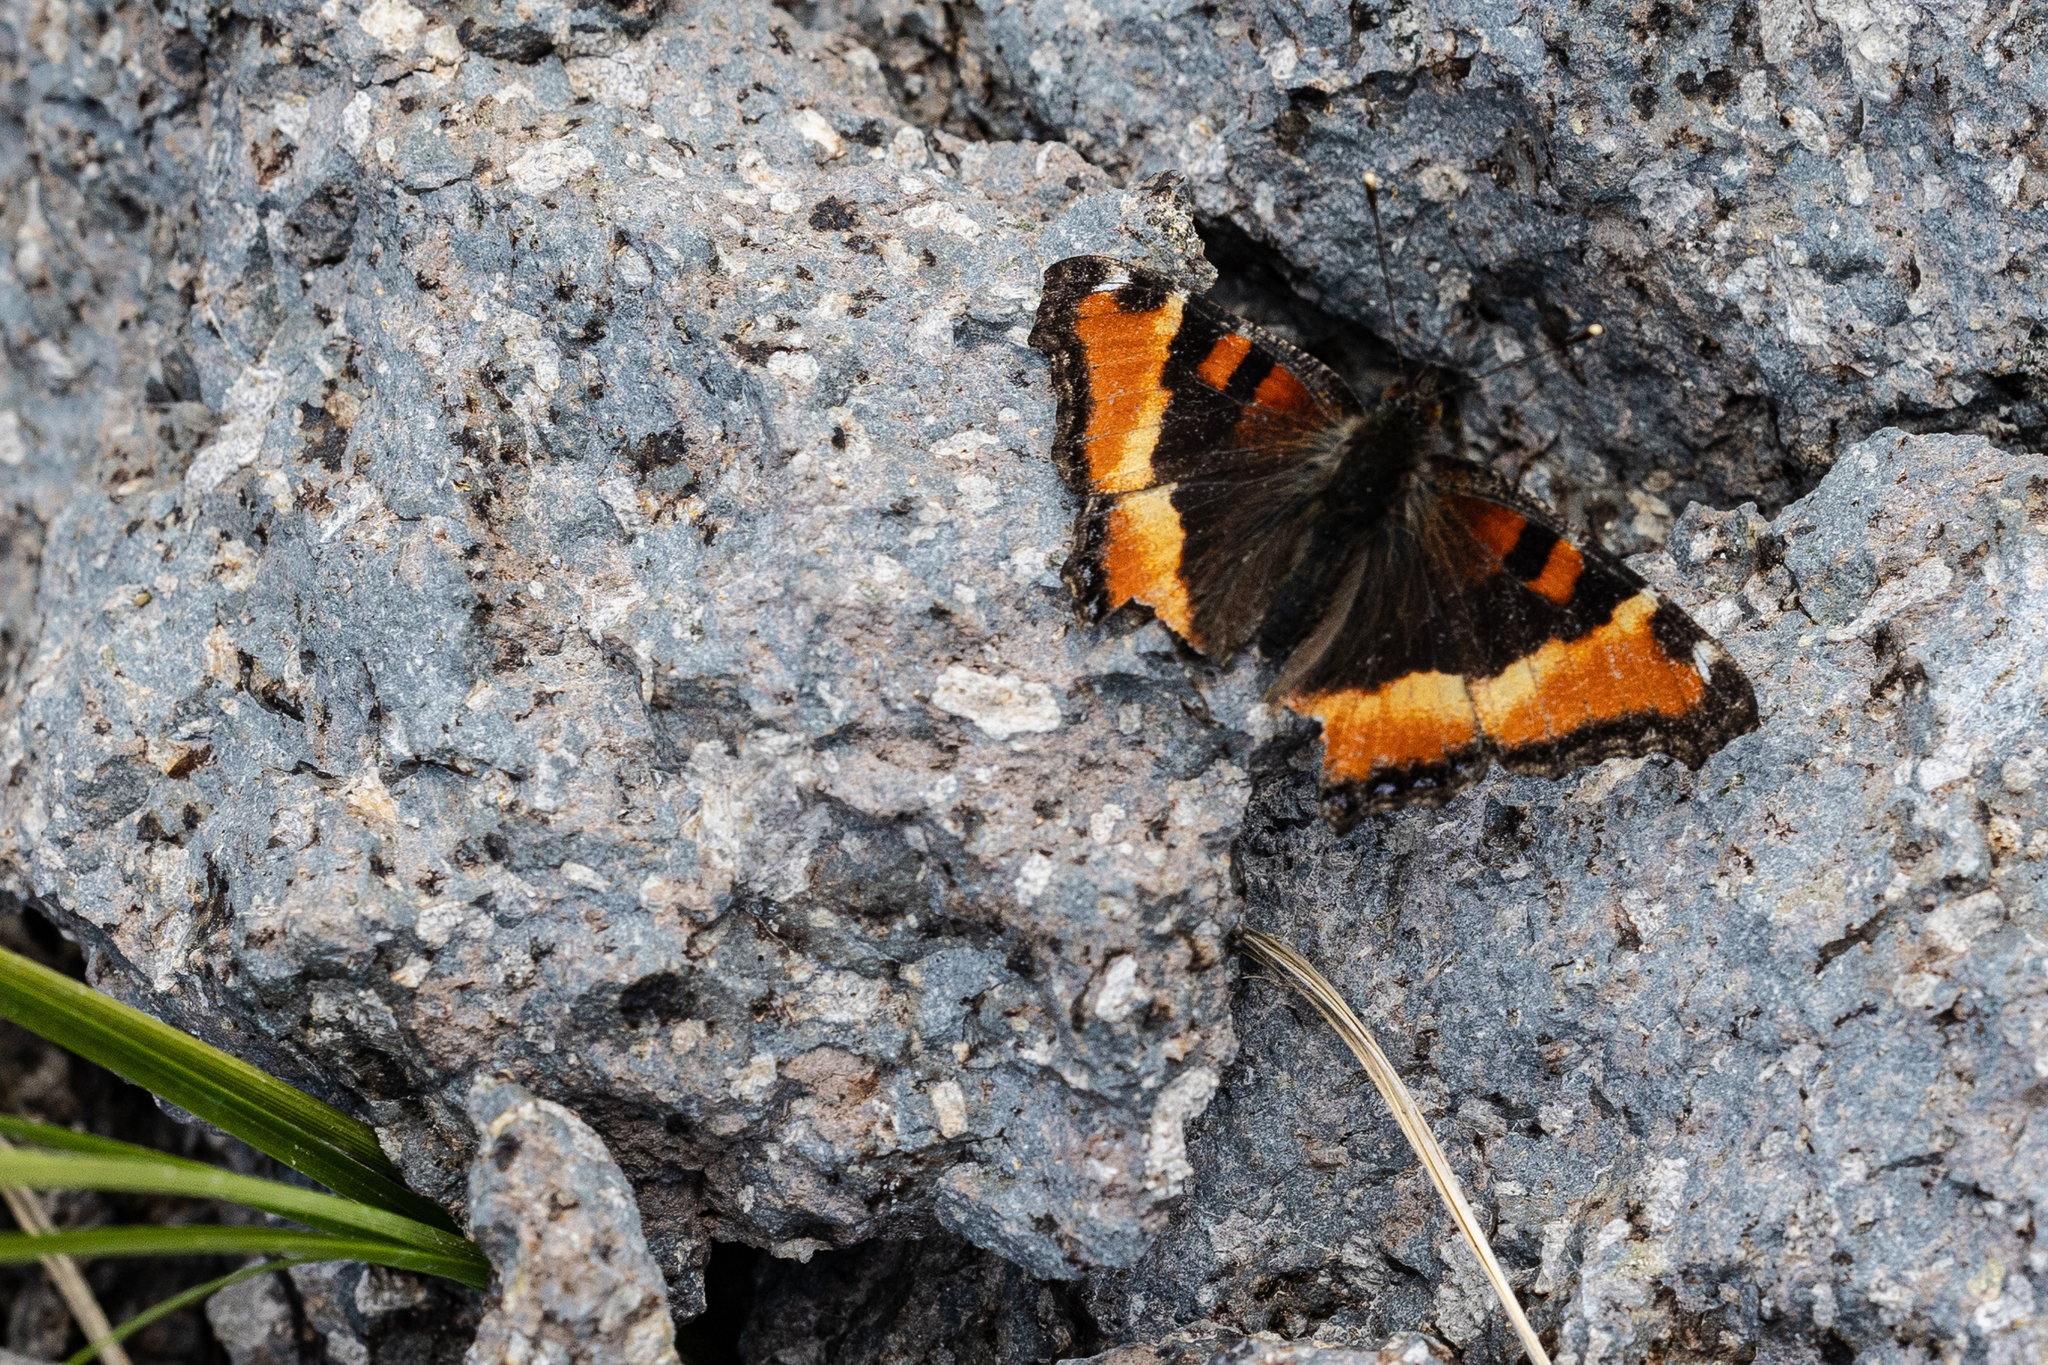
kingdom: Animalia
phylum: Arthropoda
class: Insecta
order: Lepidoptera
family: Nymphalidae
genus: Aglais
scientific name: Aglais milberti
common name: Milbert's tortoiseshell
